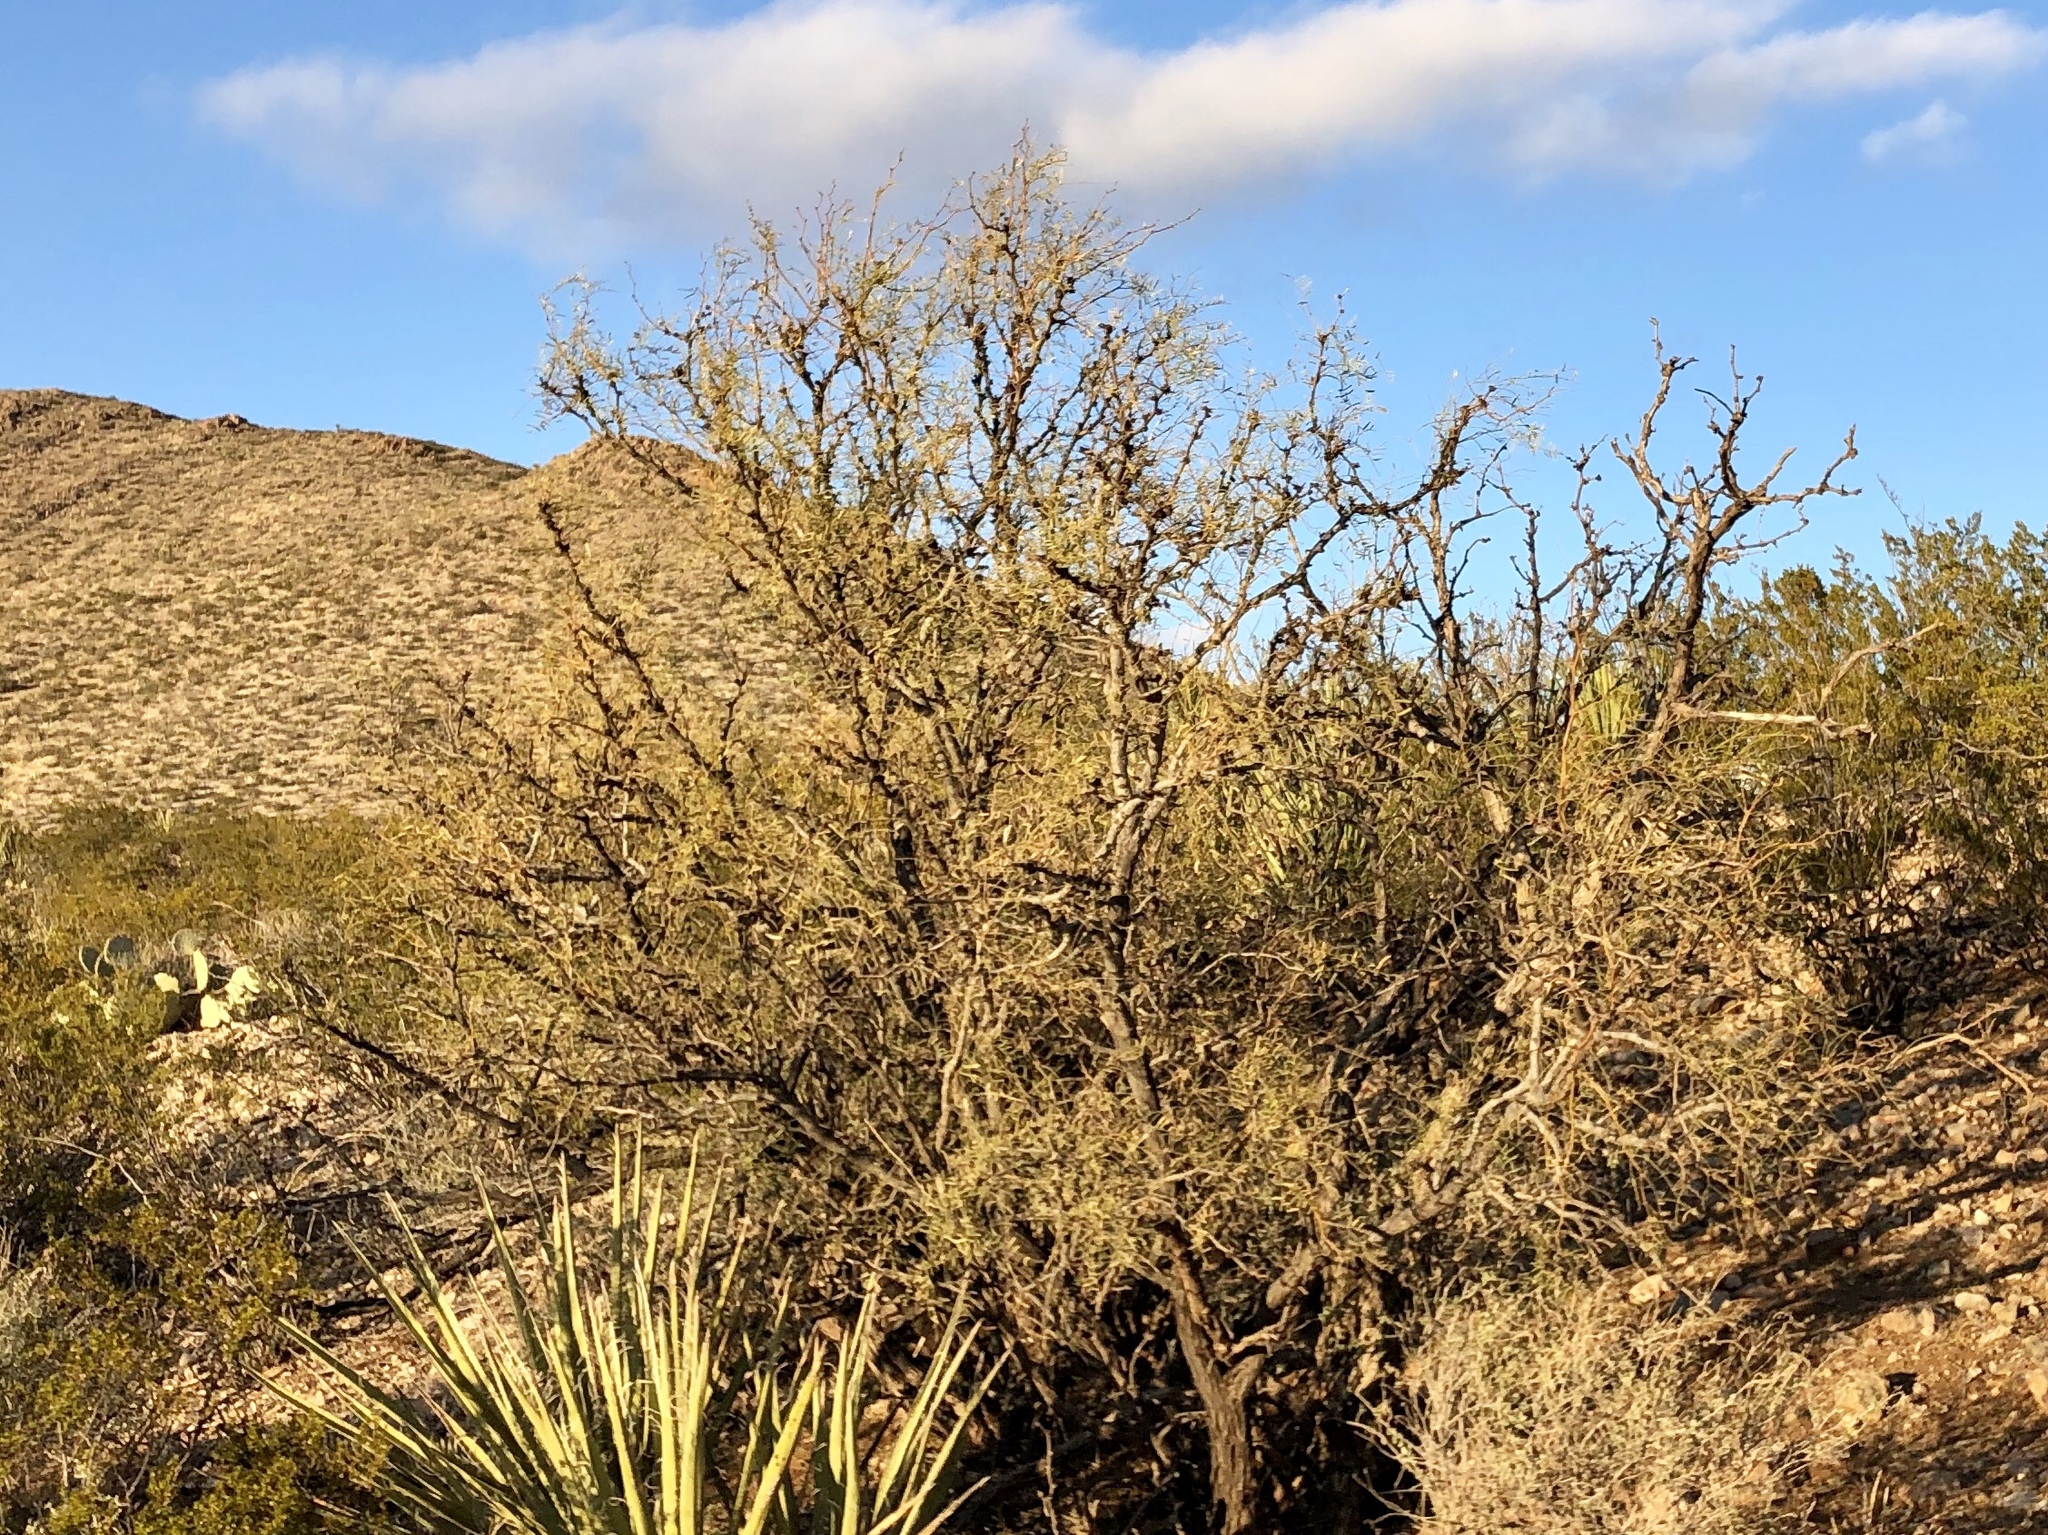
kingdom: Plantae
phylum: Tracheophyta
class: Magnoliopsida
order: Fabales
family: Fabaceae
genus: Prosopis
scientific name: Prosopis glandulosa
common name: Honey mesquite
